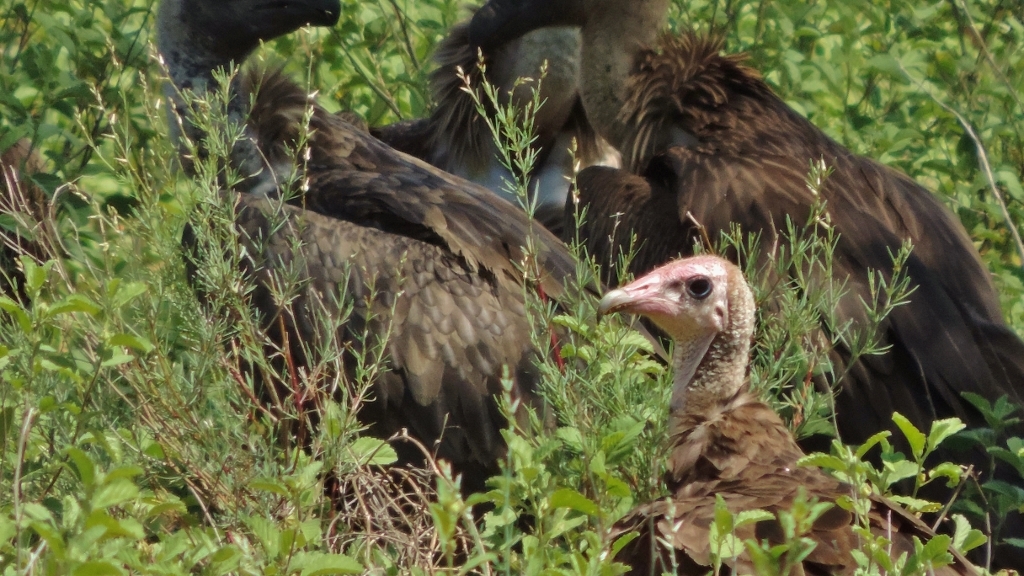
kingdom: Animalia
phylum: Chordata
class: Aves
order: Accipitriformes
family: Accipitridae
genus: Necrosyrtes
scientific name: Necrosyrtes monachus
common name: Hooded vulture
